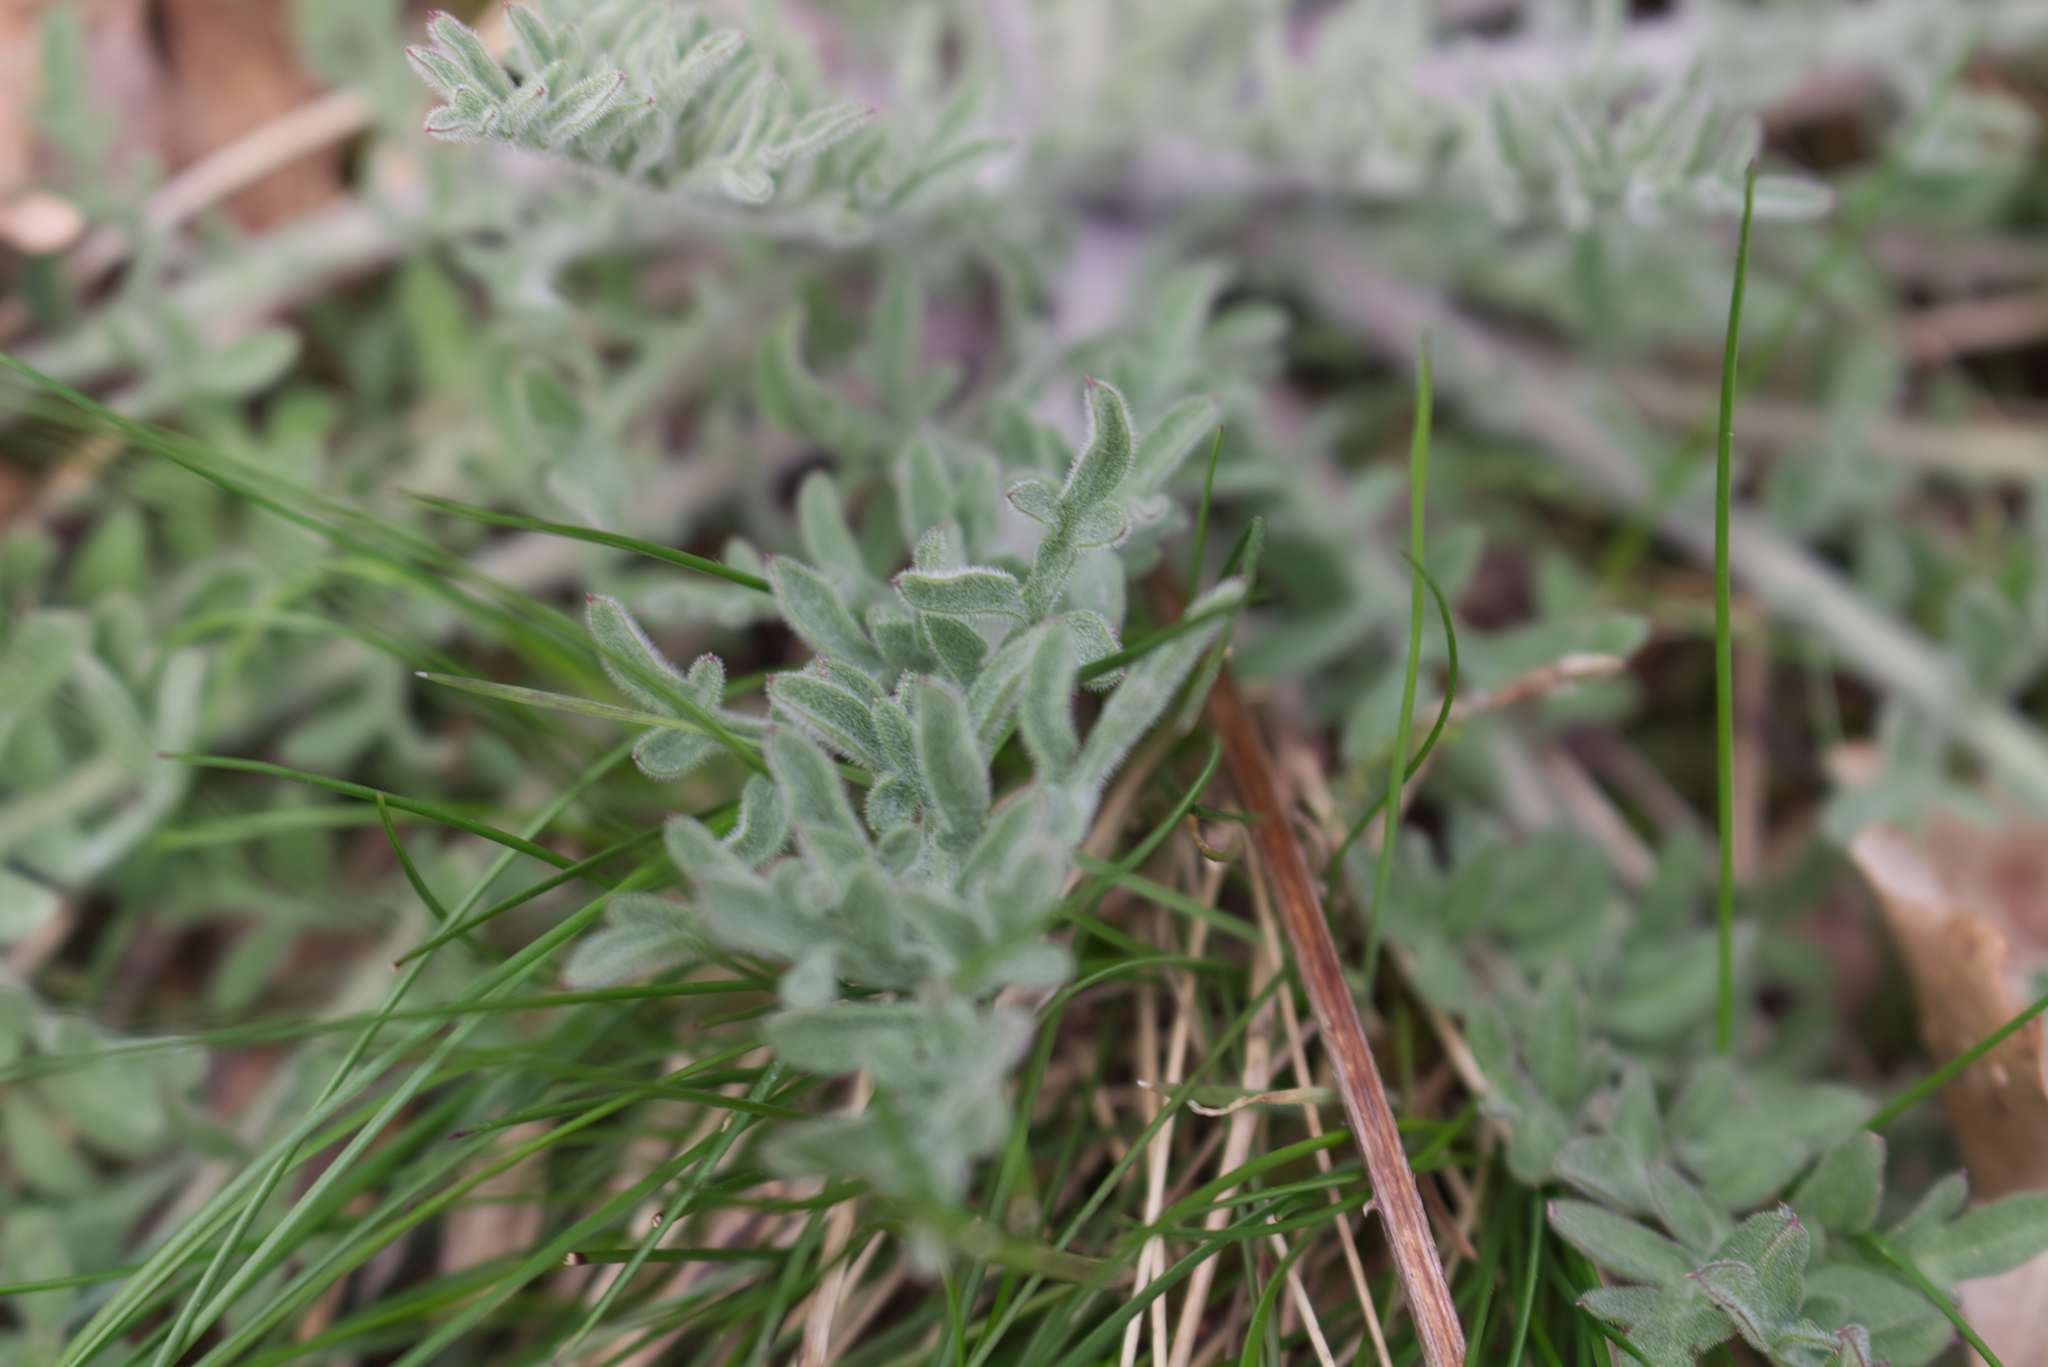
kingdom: Plantae
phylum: Tracheophyta
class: Magnoliopsida
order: Asterales
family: Asteraceae
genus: Centaurea
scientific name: Centaurea stoebe
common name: Spotted knapweed
